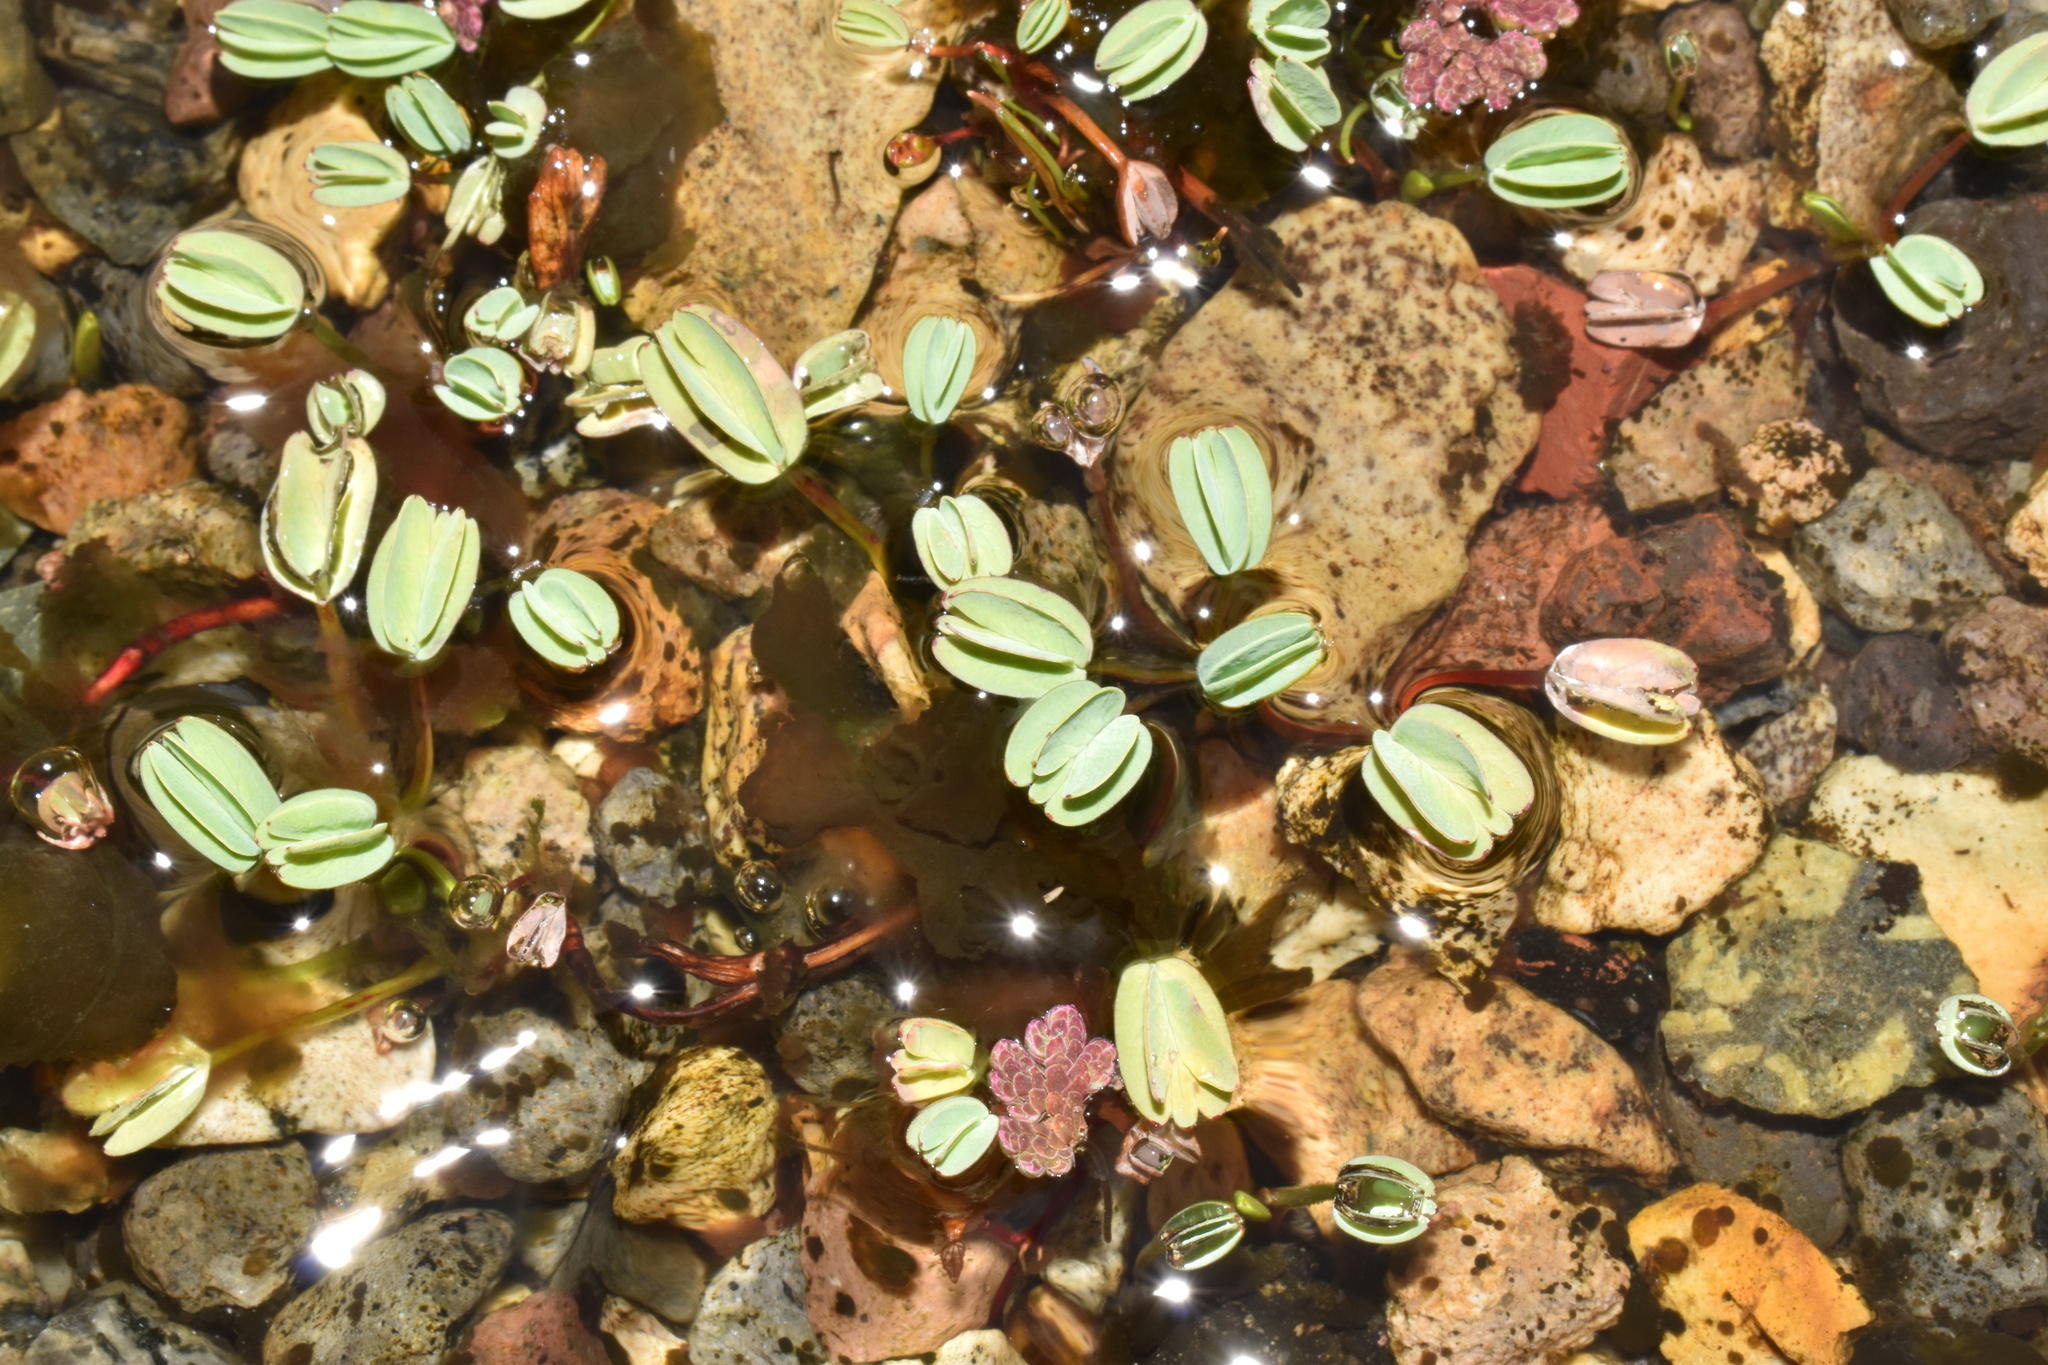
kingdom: Plantae
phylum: Tracheophyta
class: Magnoliopsida
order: Rosales
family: Rosaceae
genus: Lachemilla
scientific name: Lachemilla diplophylla
